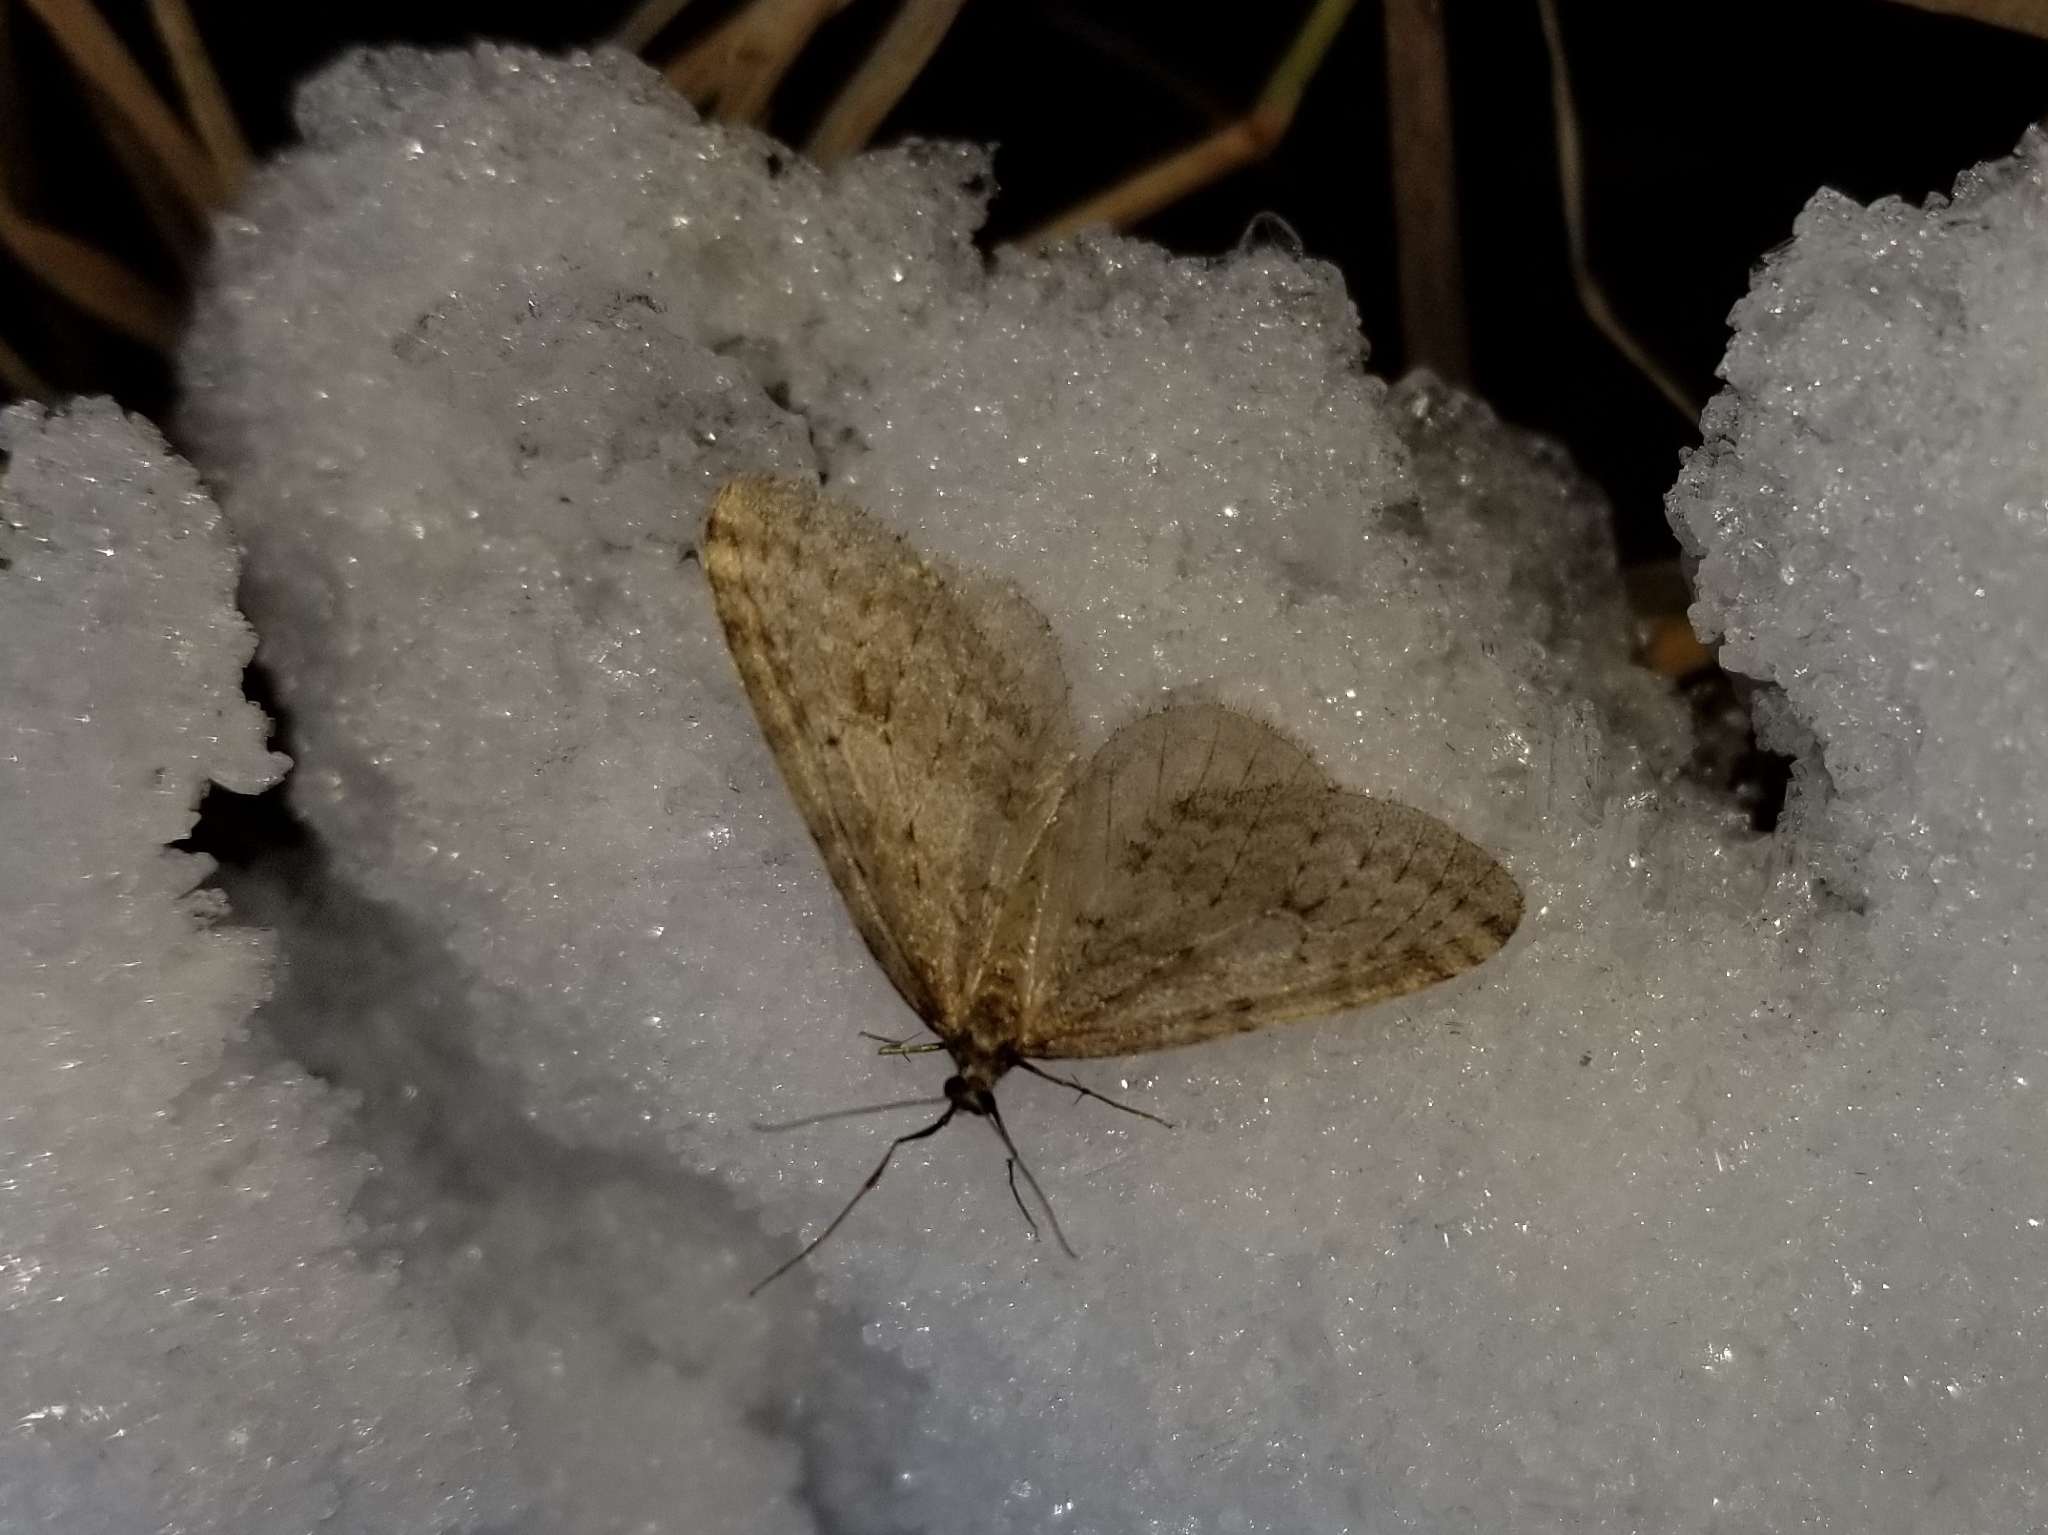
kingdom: Animalia
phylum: Arthropoda
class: Insecta
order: Lepidoptera
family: Geometridae
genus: Operophtera
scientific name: Operophtera bruceata
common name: Bruce spanworm
